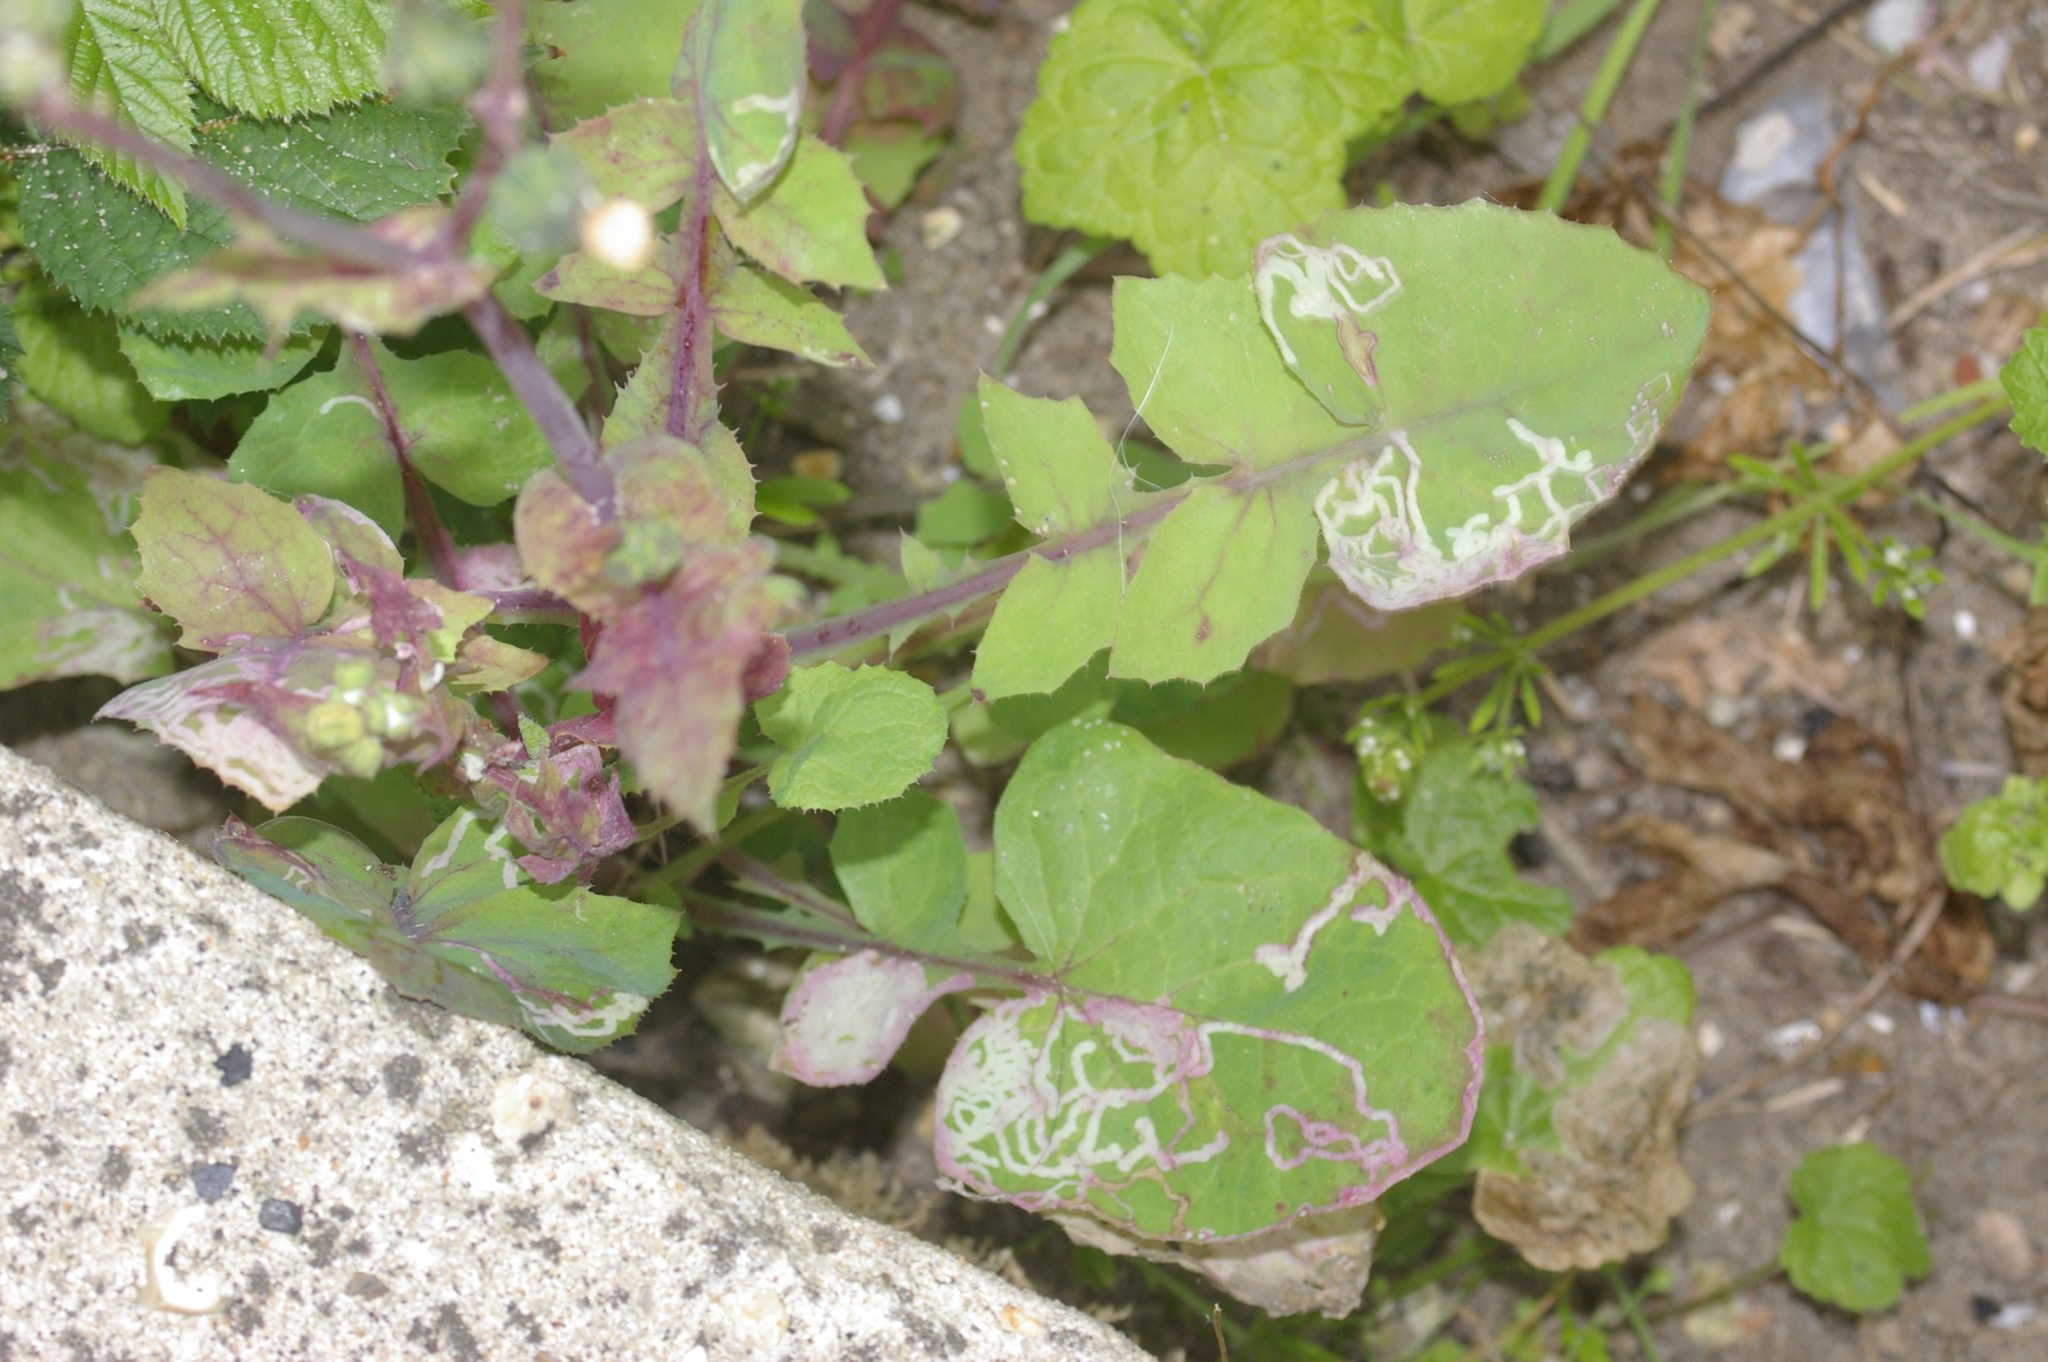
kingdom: Plantae
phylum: Tracheophyta
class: Magnoliopsida
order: Asterales
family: Asteraceae
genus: Sonchus
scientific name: Sonchus oleraceus
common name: Common sowthistle
